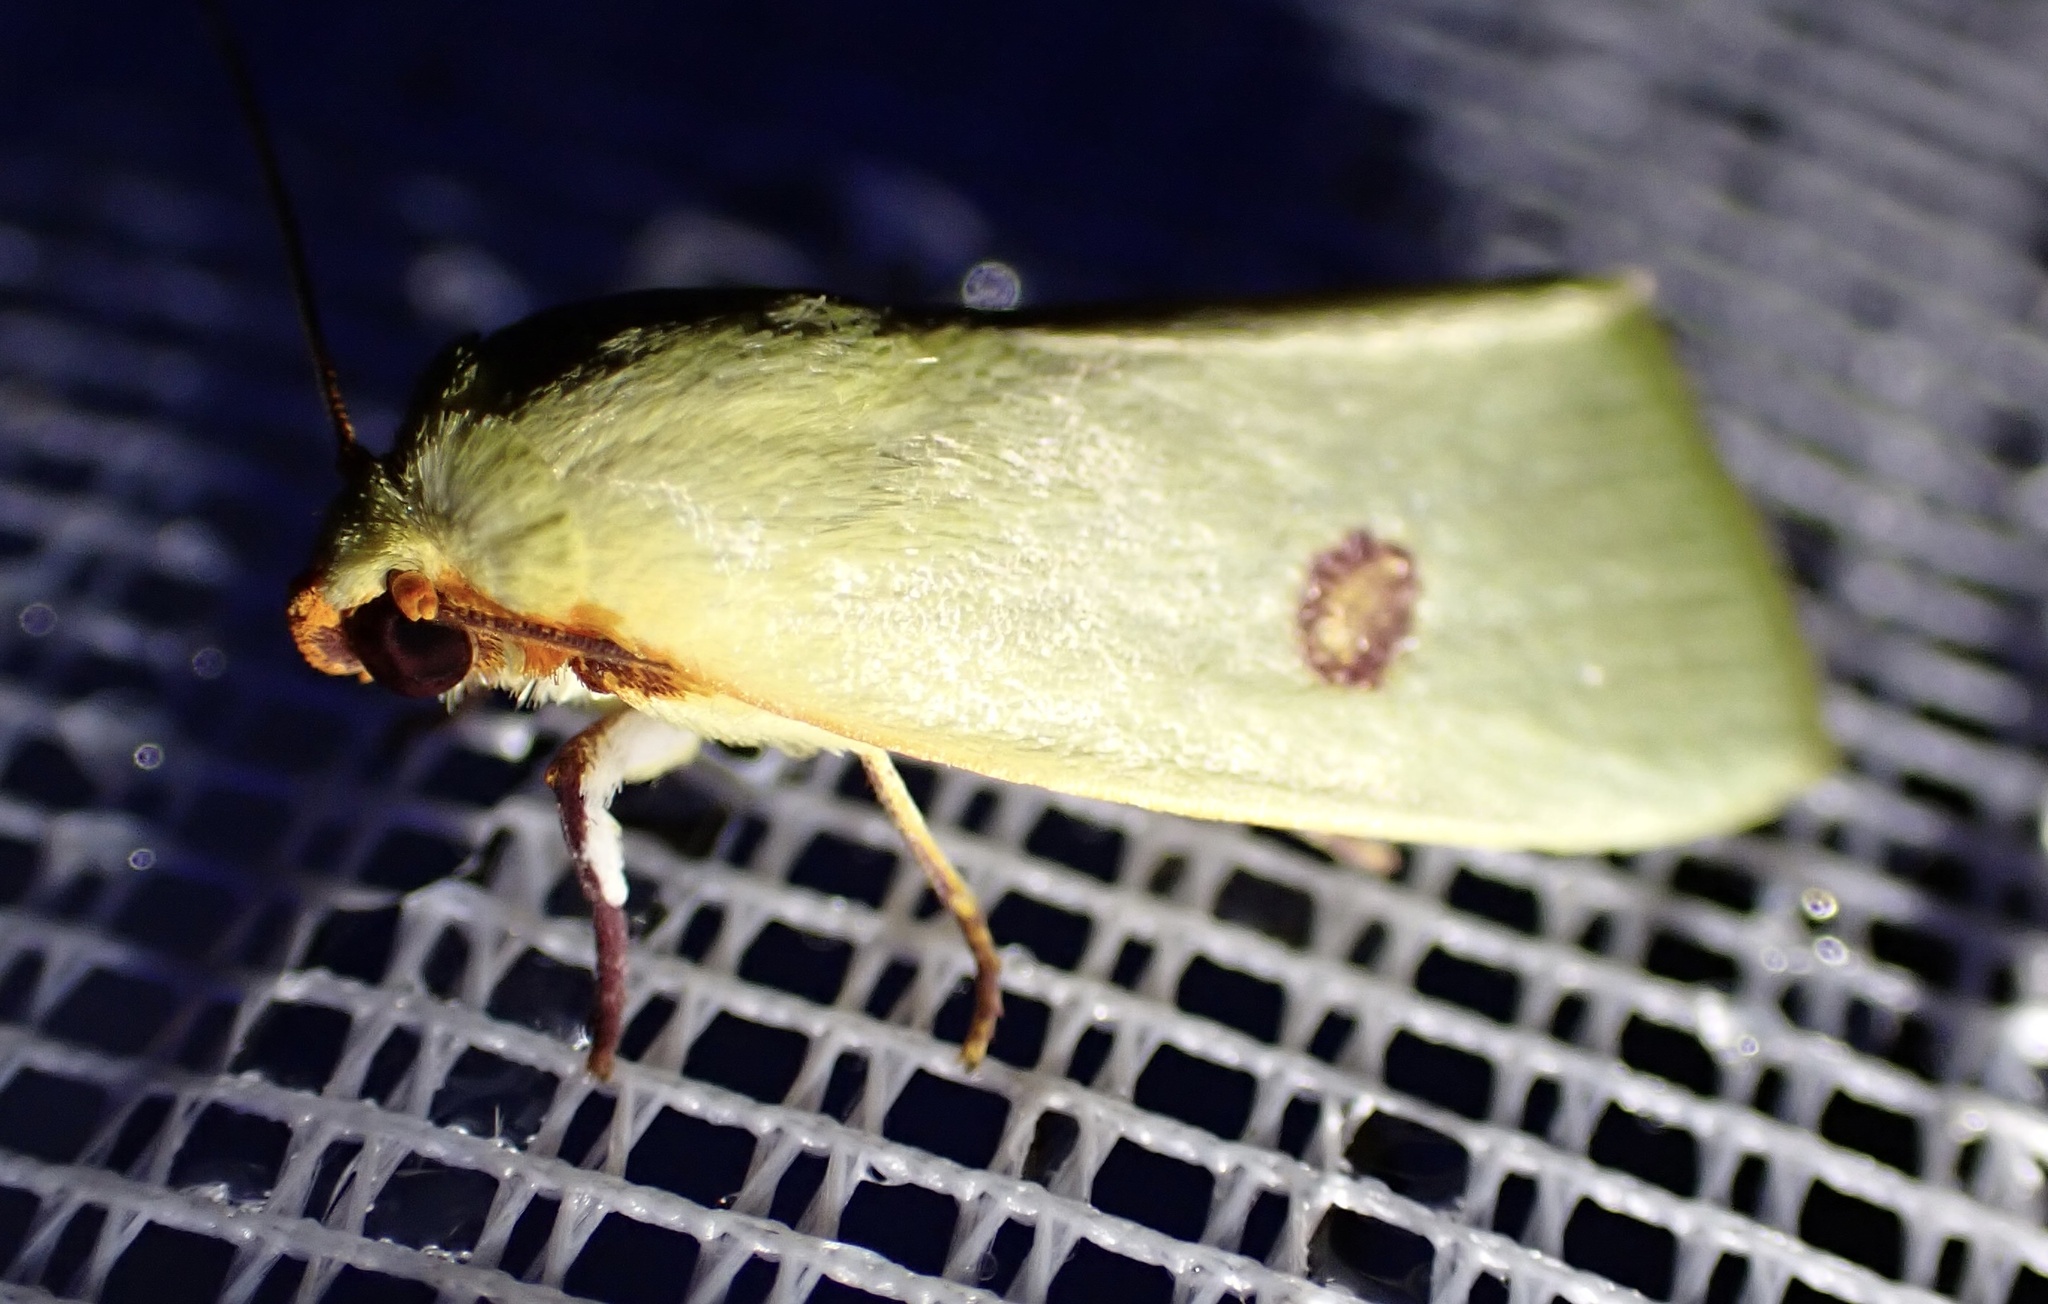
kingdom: Animalia
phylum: Arthropoda
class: Insecta
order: Lepidoptera
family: Nolidae
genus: Earias
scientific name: Earias rufopunctata
